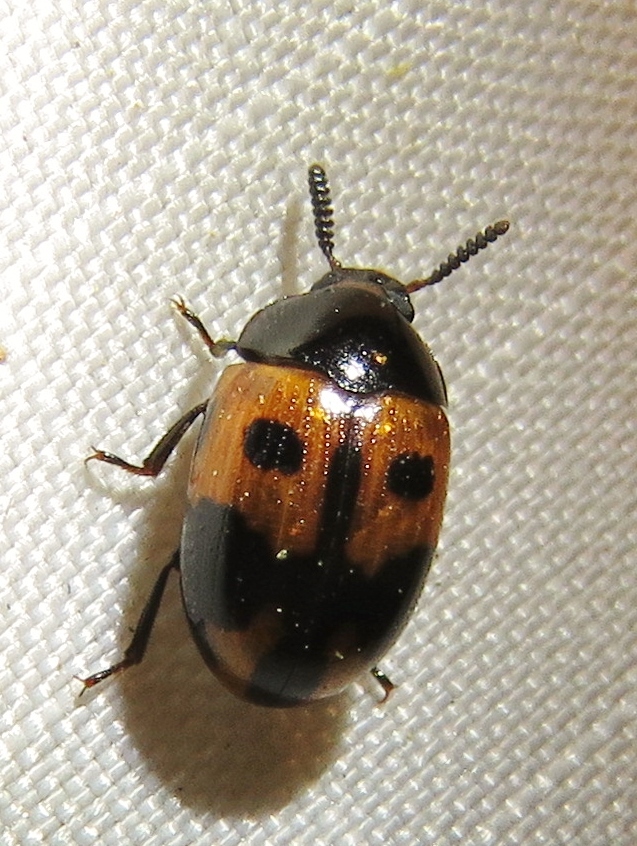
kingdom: Animalia
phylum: Arthropoda
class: Insecta
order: Coleoptera
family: Tenebrionidae
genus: Diaperis
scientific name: Diaperis maculata
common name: Darkling beetle
